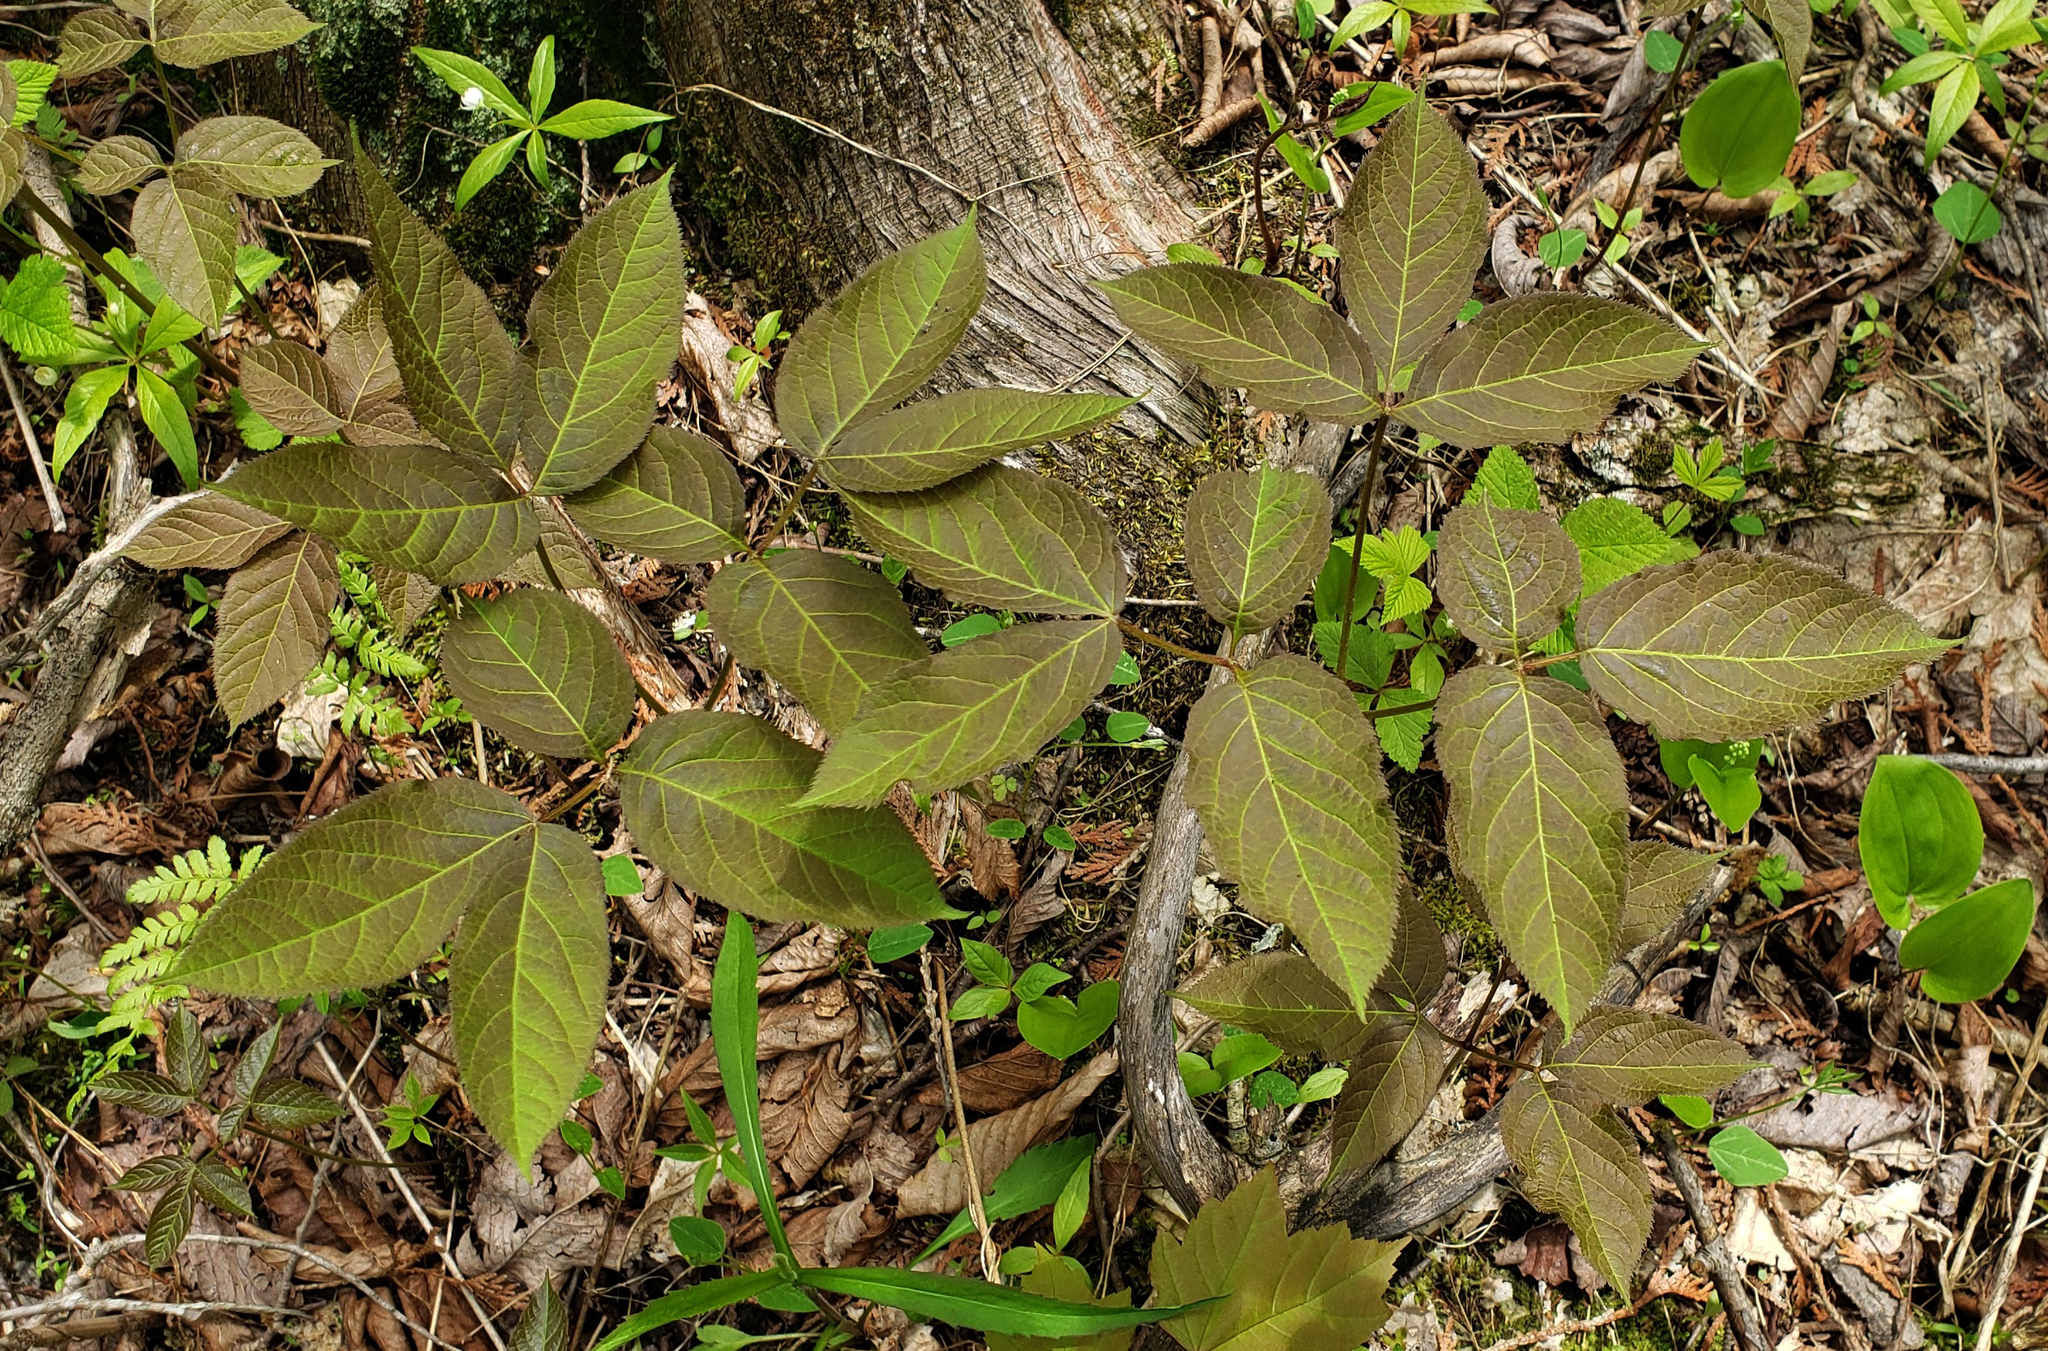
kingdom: Plantae
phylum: Tracheophyta
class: Magnoliopsida
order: Apiales
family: Araliaceae
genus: Aralia
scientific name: Aralia nudicaulis
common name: Wild sarsaparilla
